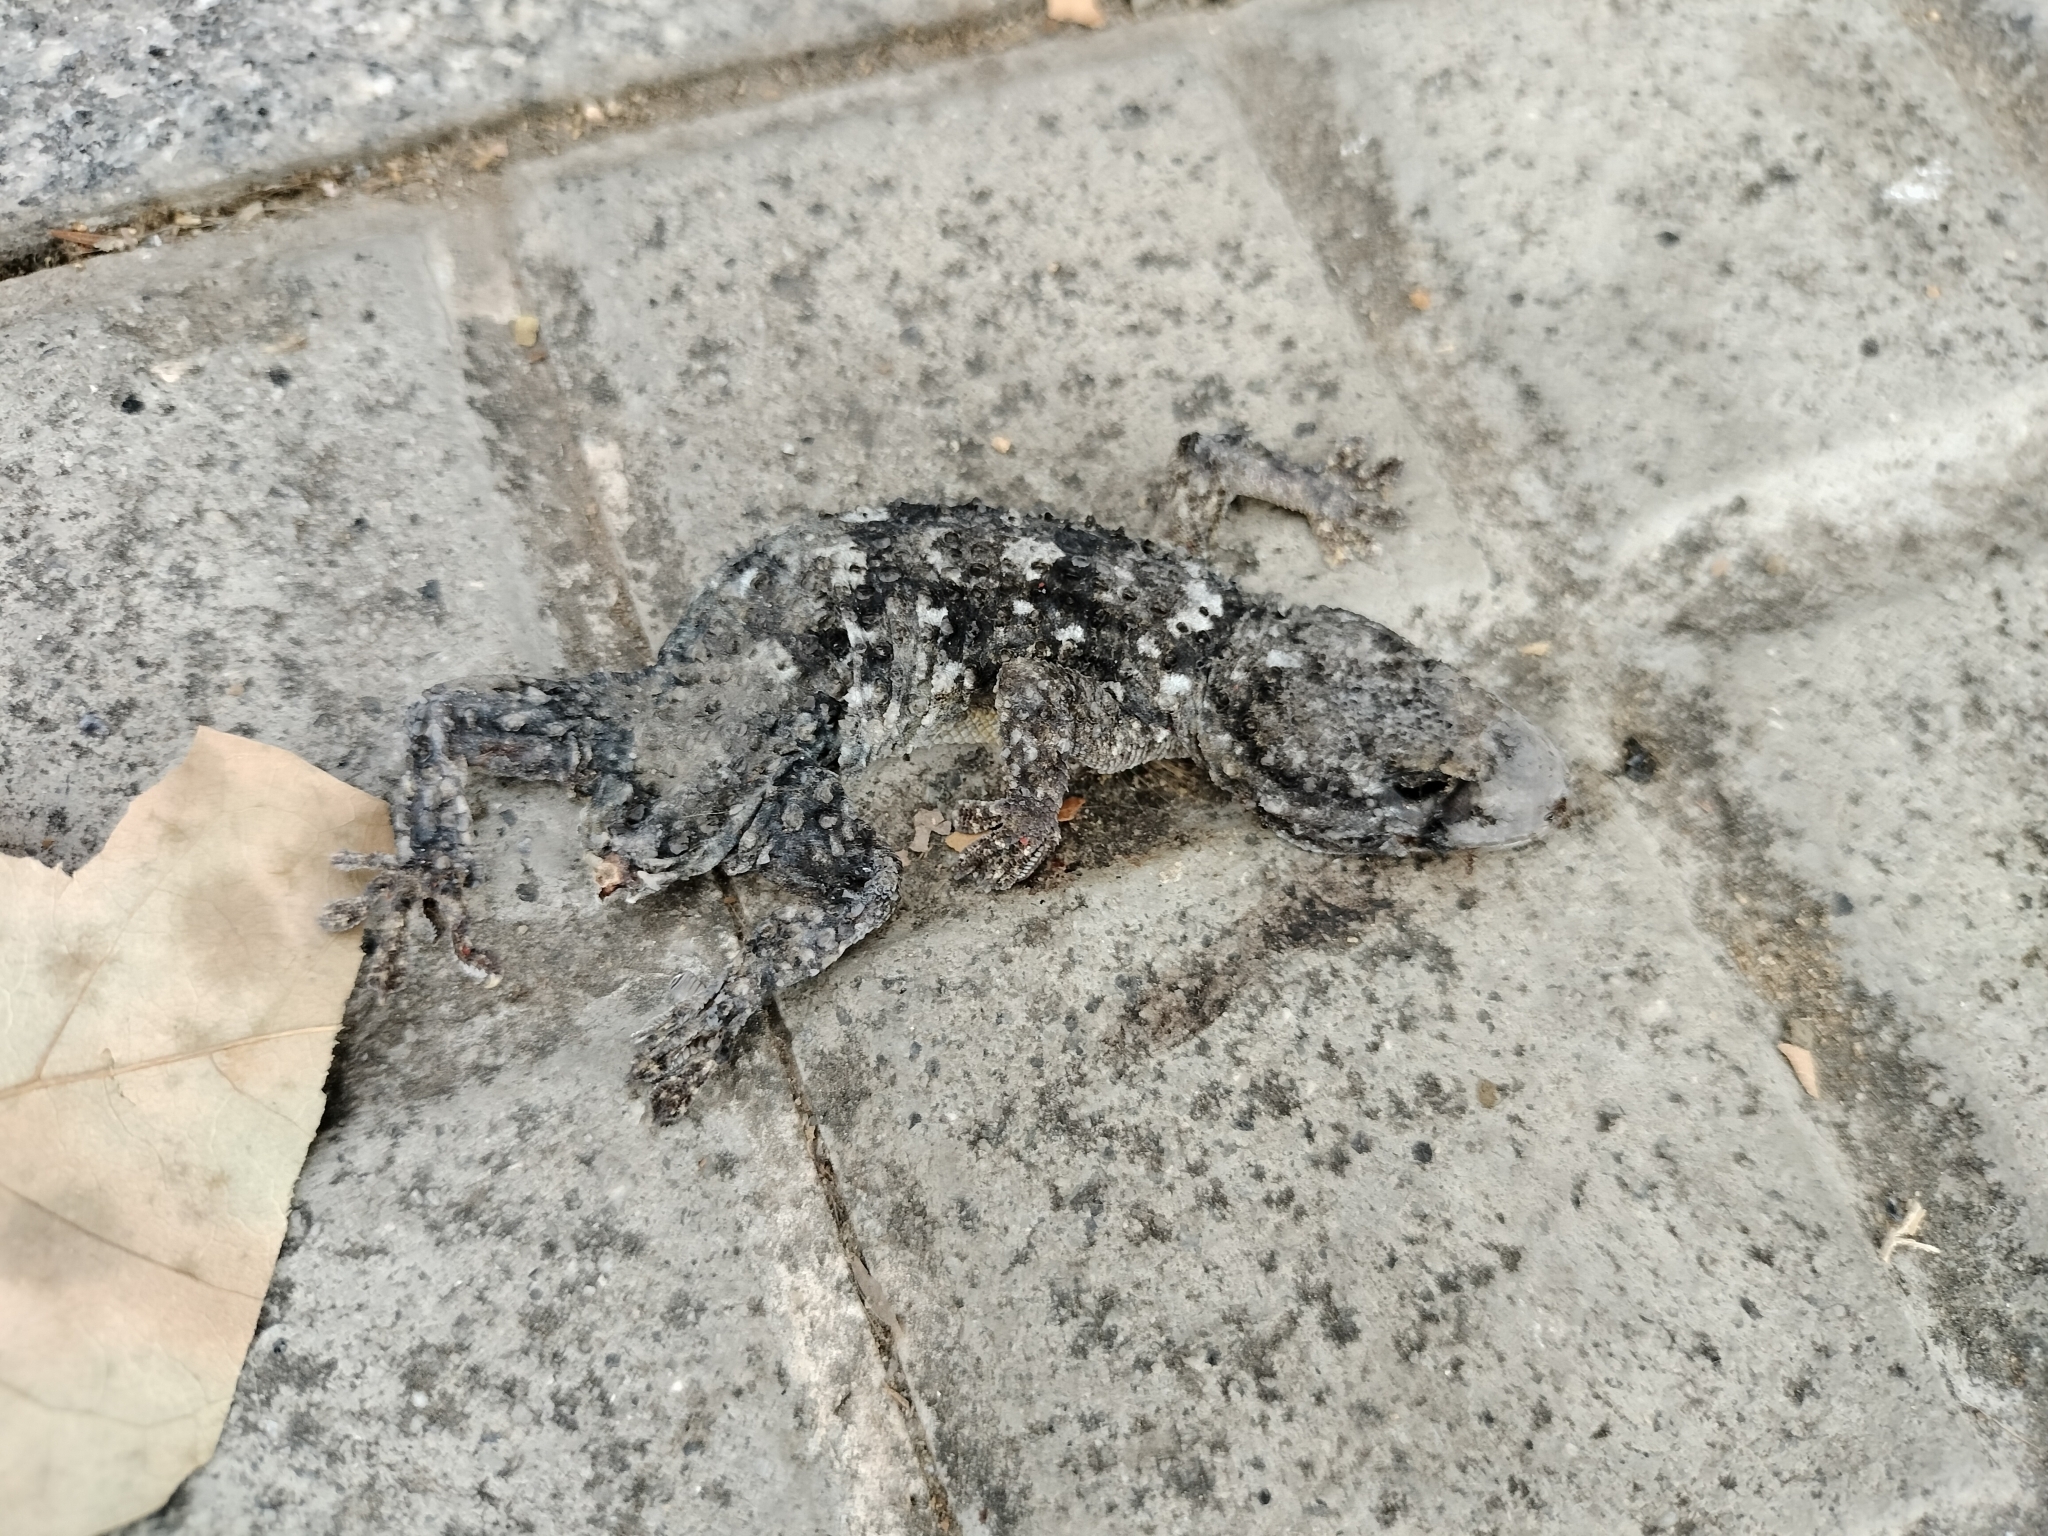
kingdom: Animalia
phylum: Chordata
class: Squamata
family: Phyllodactylidae
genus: Tarentola
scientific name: Tarentola mauritanica
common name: Moorish gecko
